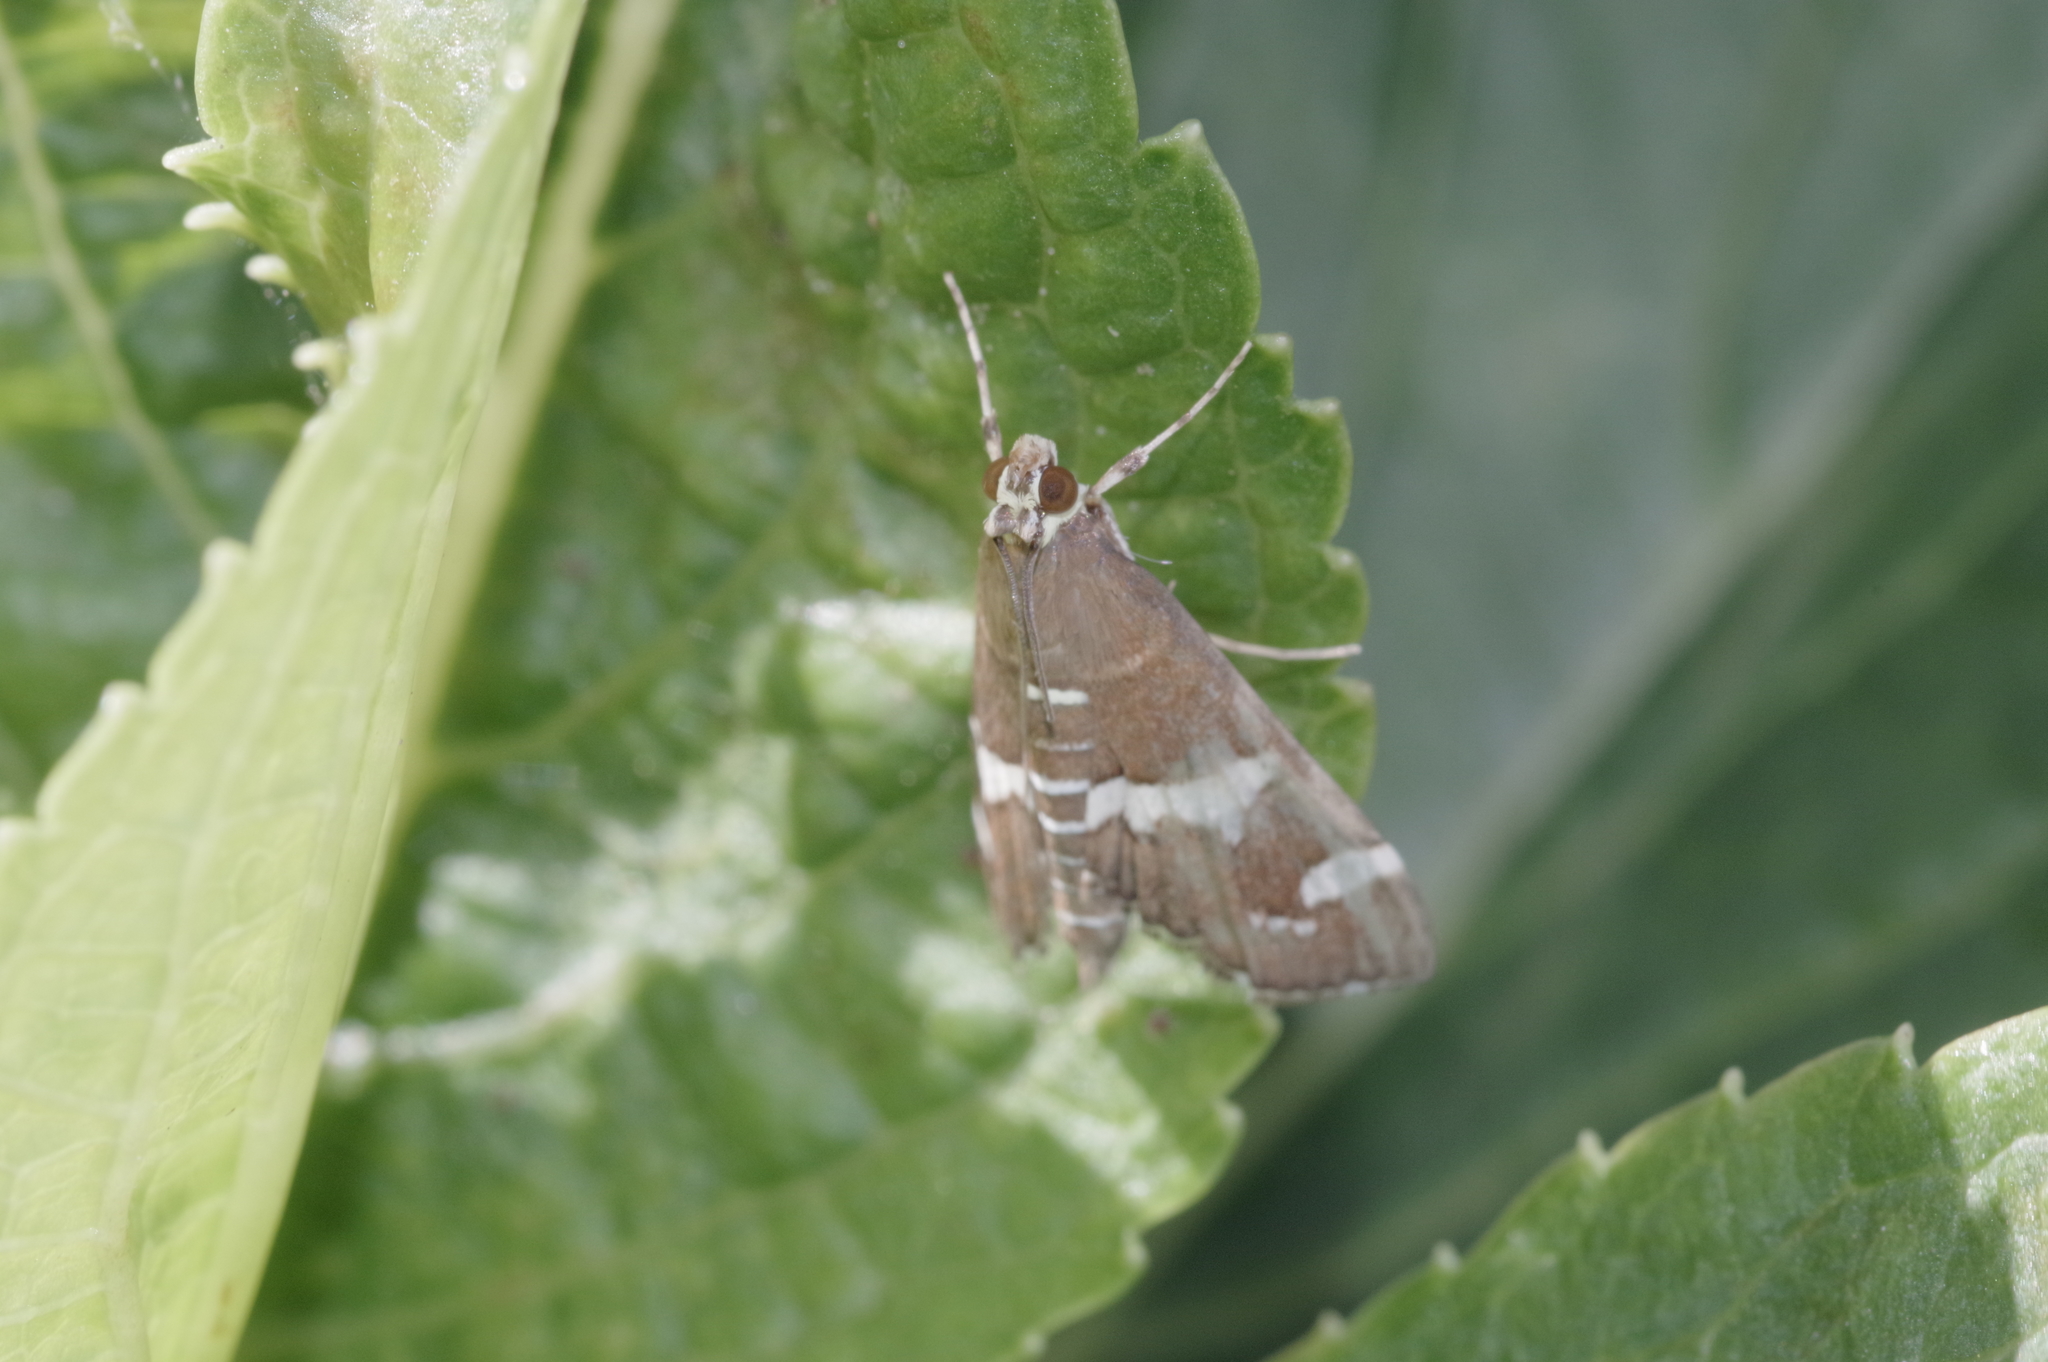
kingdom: Animalia
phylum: Arthropoda
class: Insecta
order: Lepidoptera
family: Crambidae
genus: Spoladea
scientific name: Spoladea recurvalis
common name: Beet webworm moth
